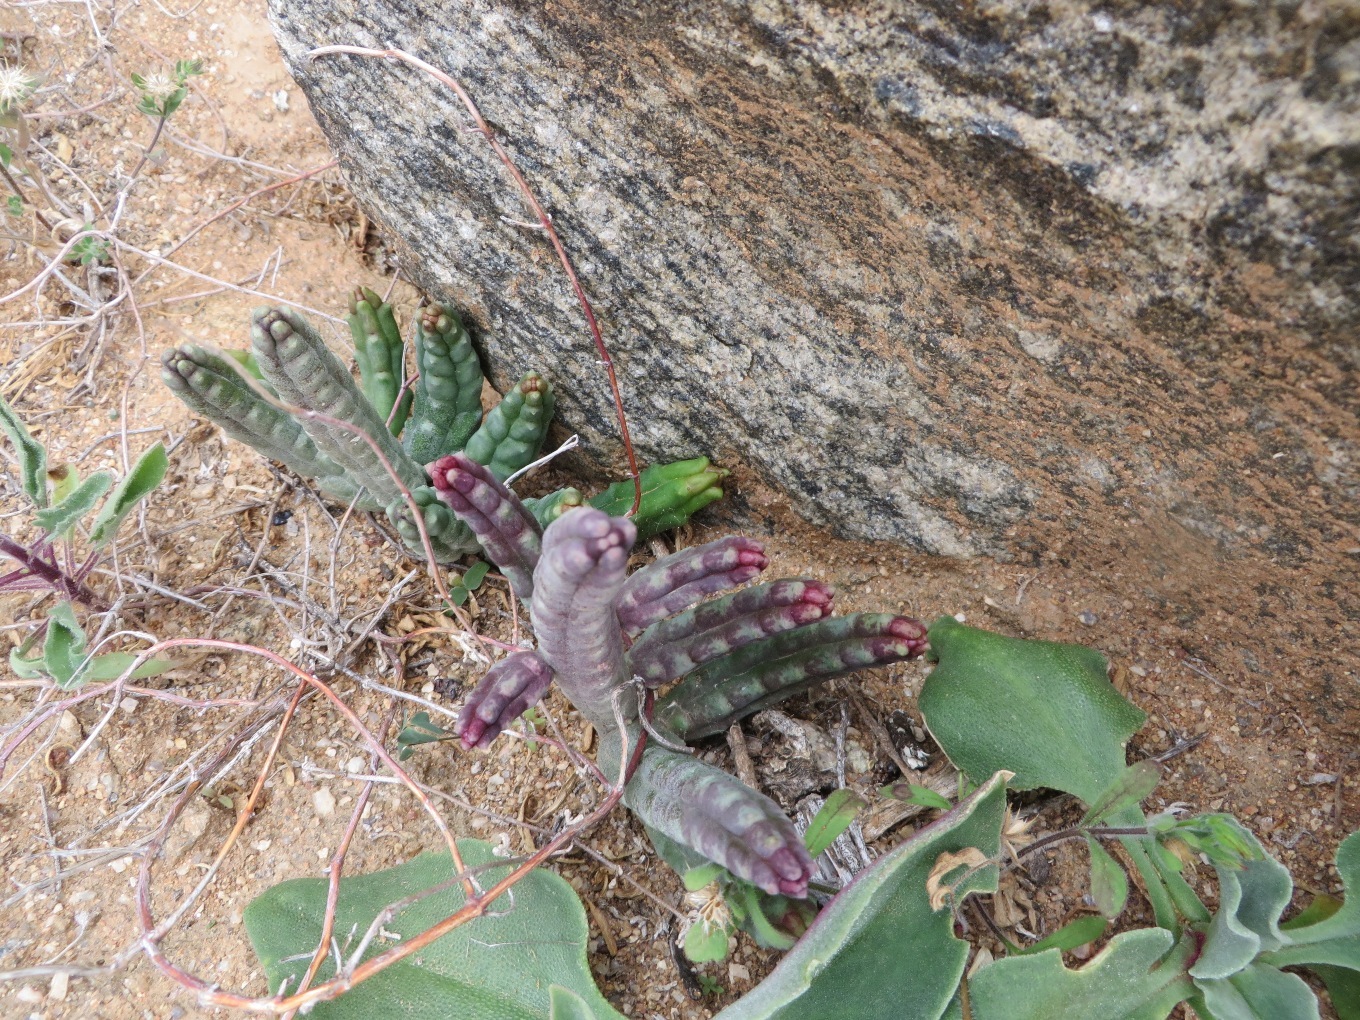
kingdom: Plantae
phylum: Tracheophyta
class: Magnoliopsida
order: Gentianales
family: Apocynaceae
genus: Ceropegia
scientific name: Ceropegia penduliflora
